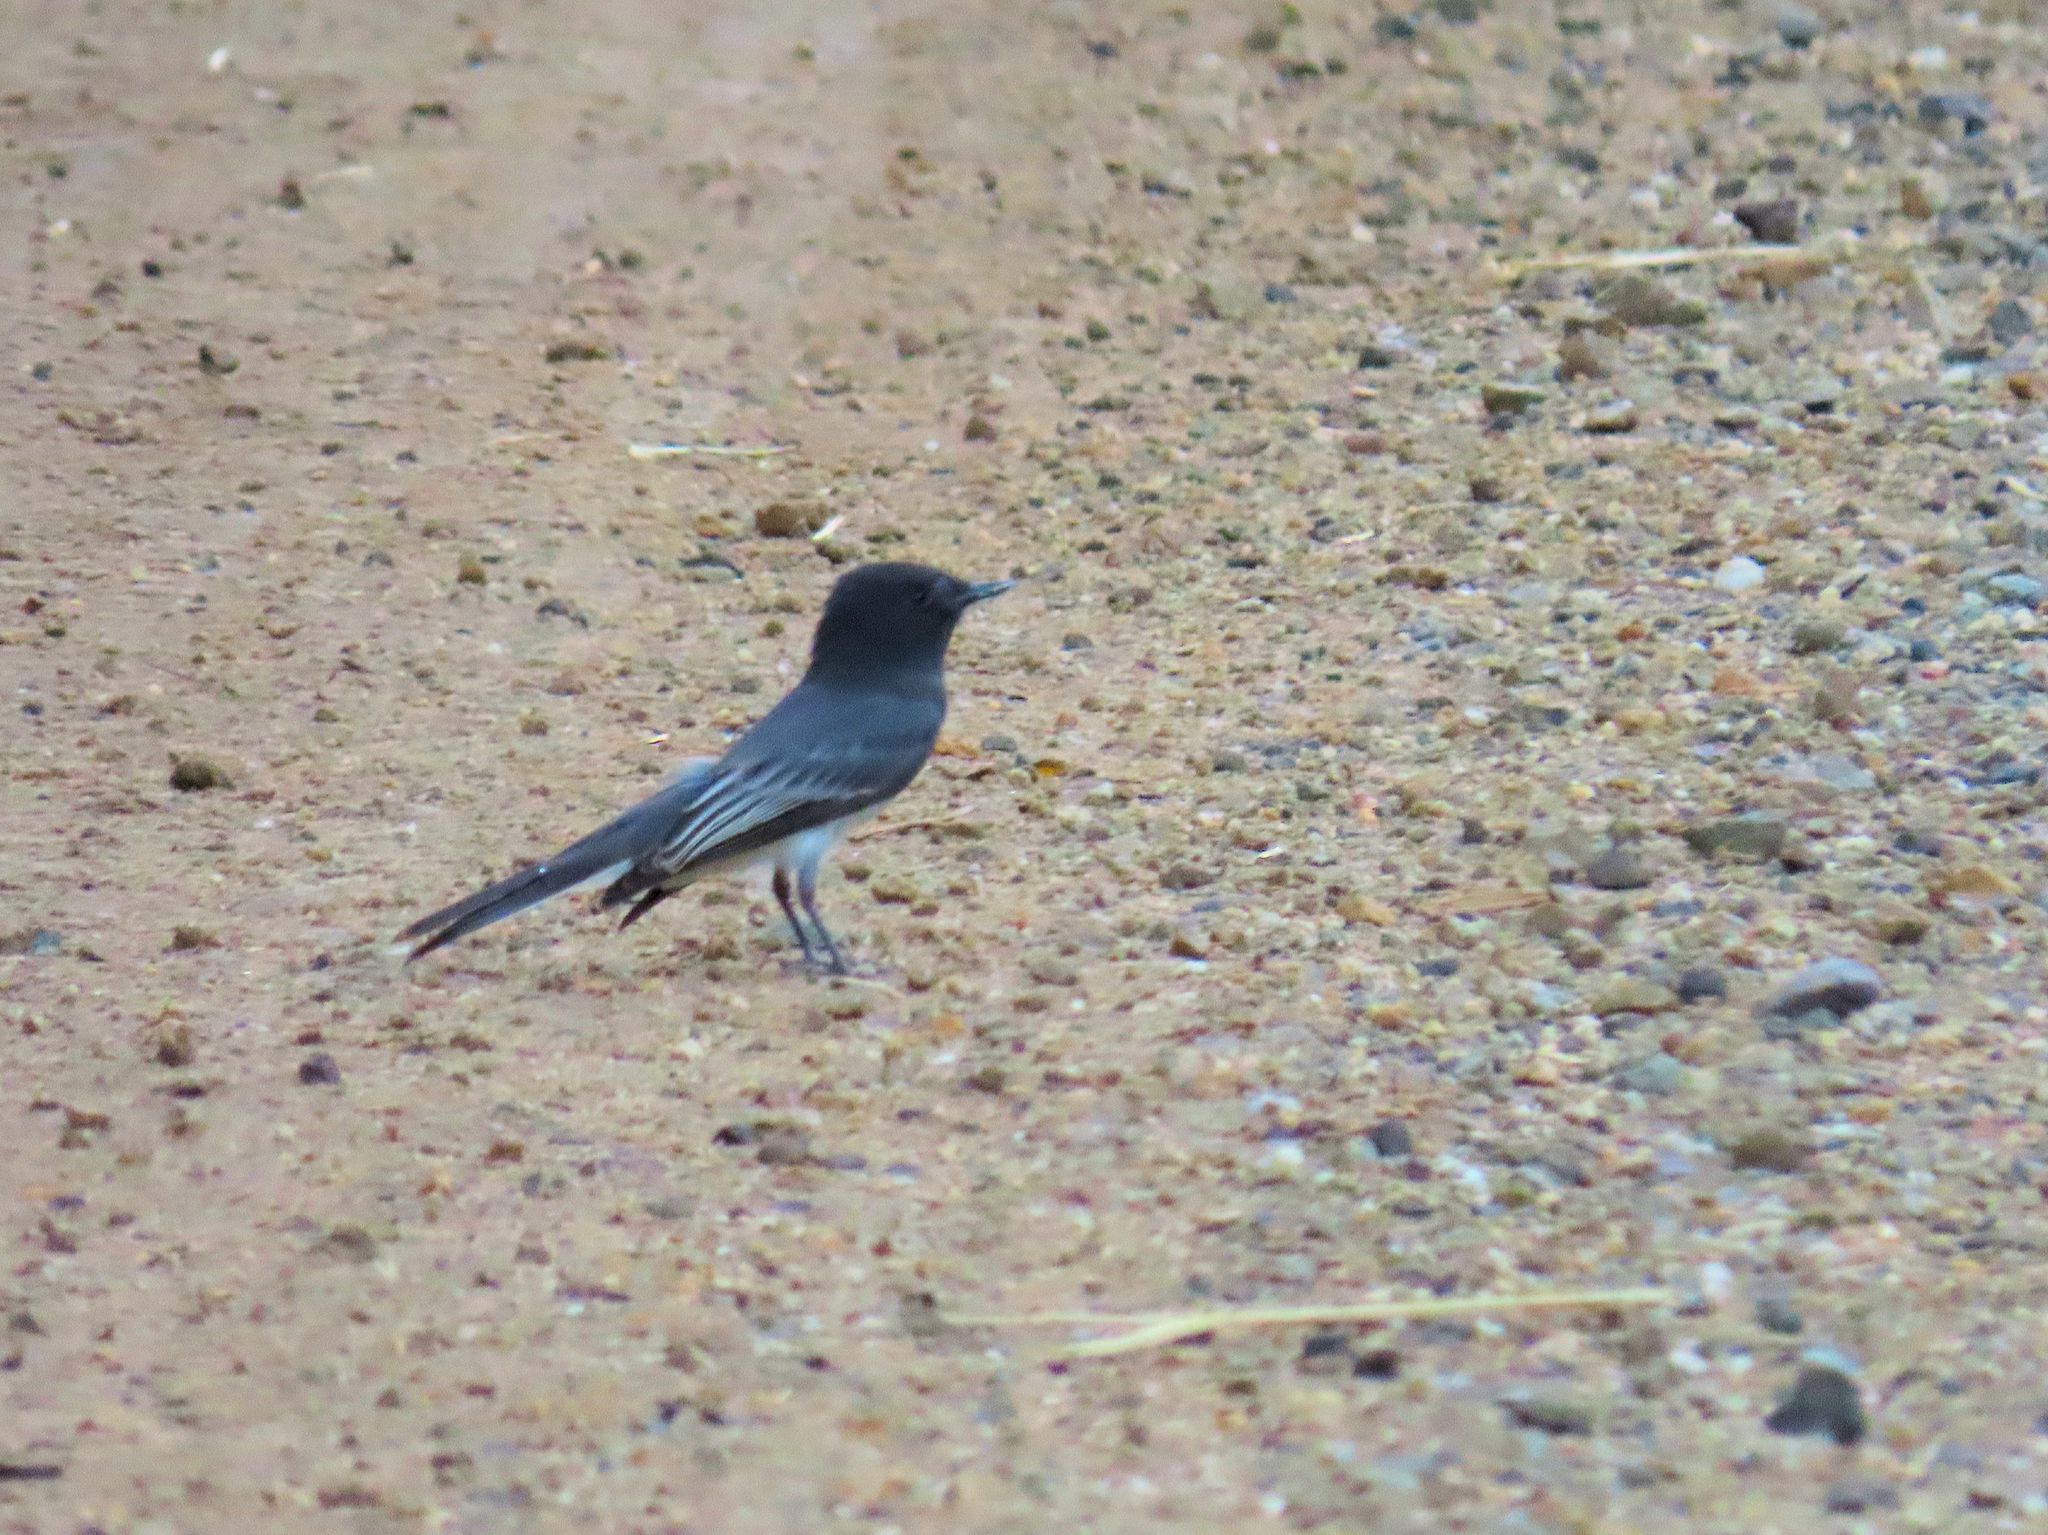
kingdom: Animalia
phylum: Chordata
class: Aves
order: Passeriformes
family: Tyrannidae
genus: Sayornis
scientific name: Sayornis nigricans
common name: Black phoebe
